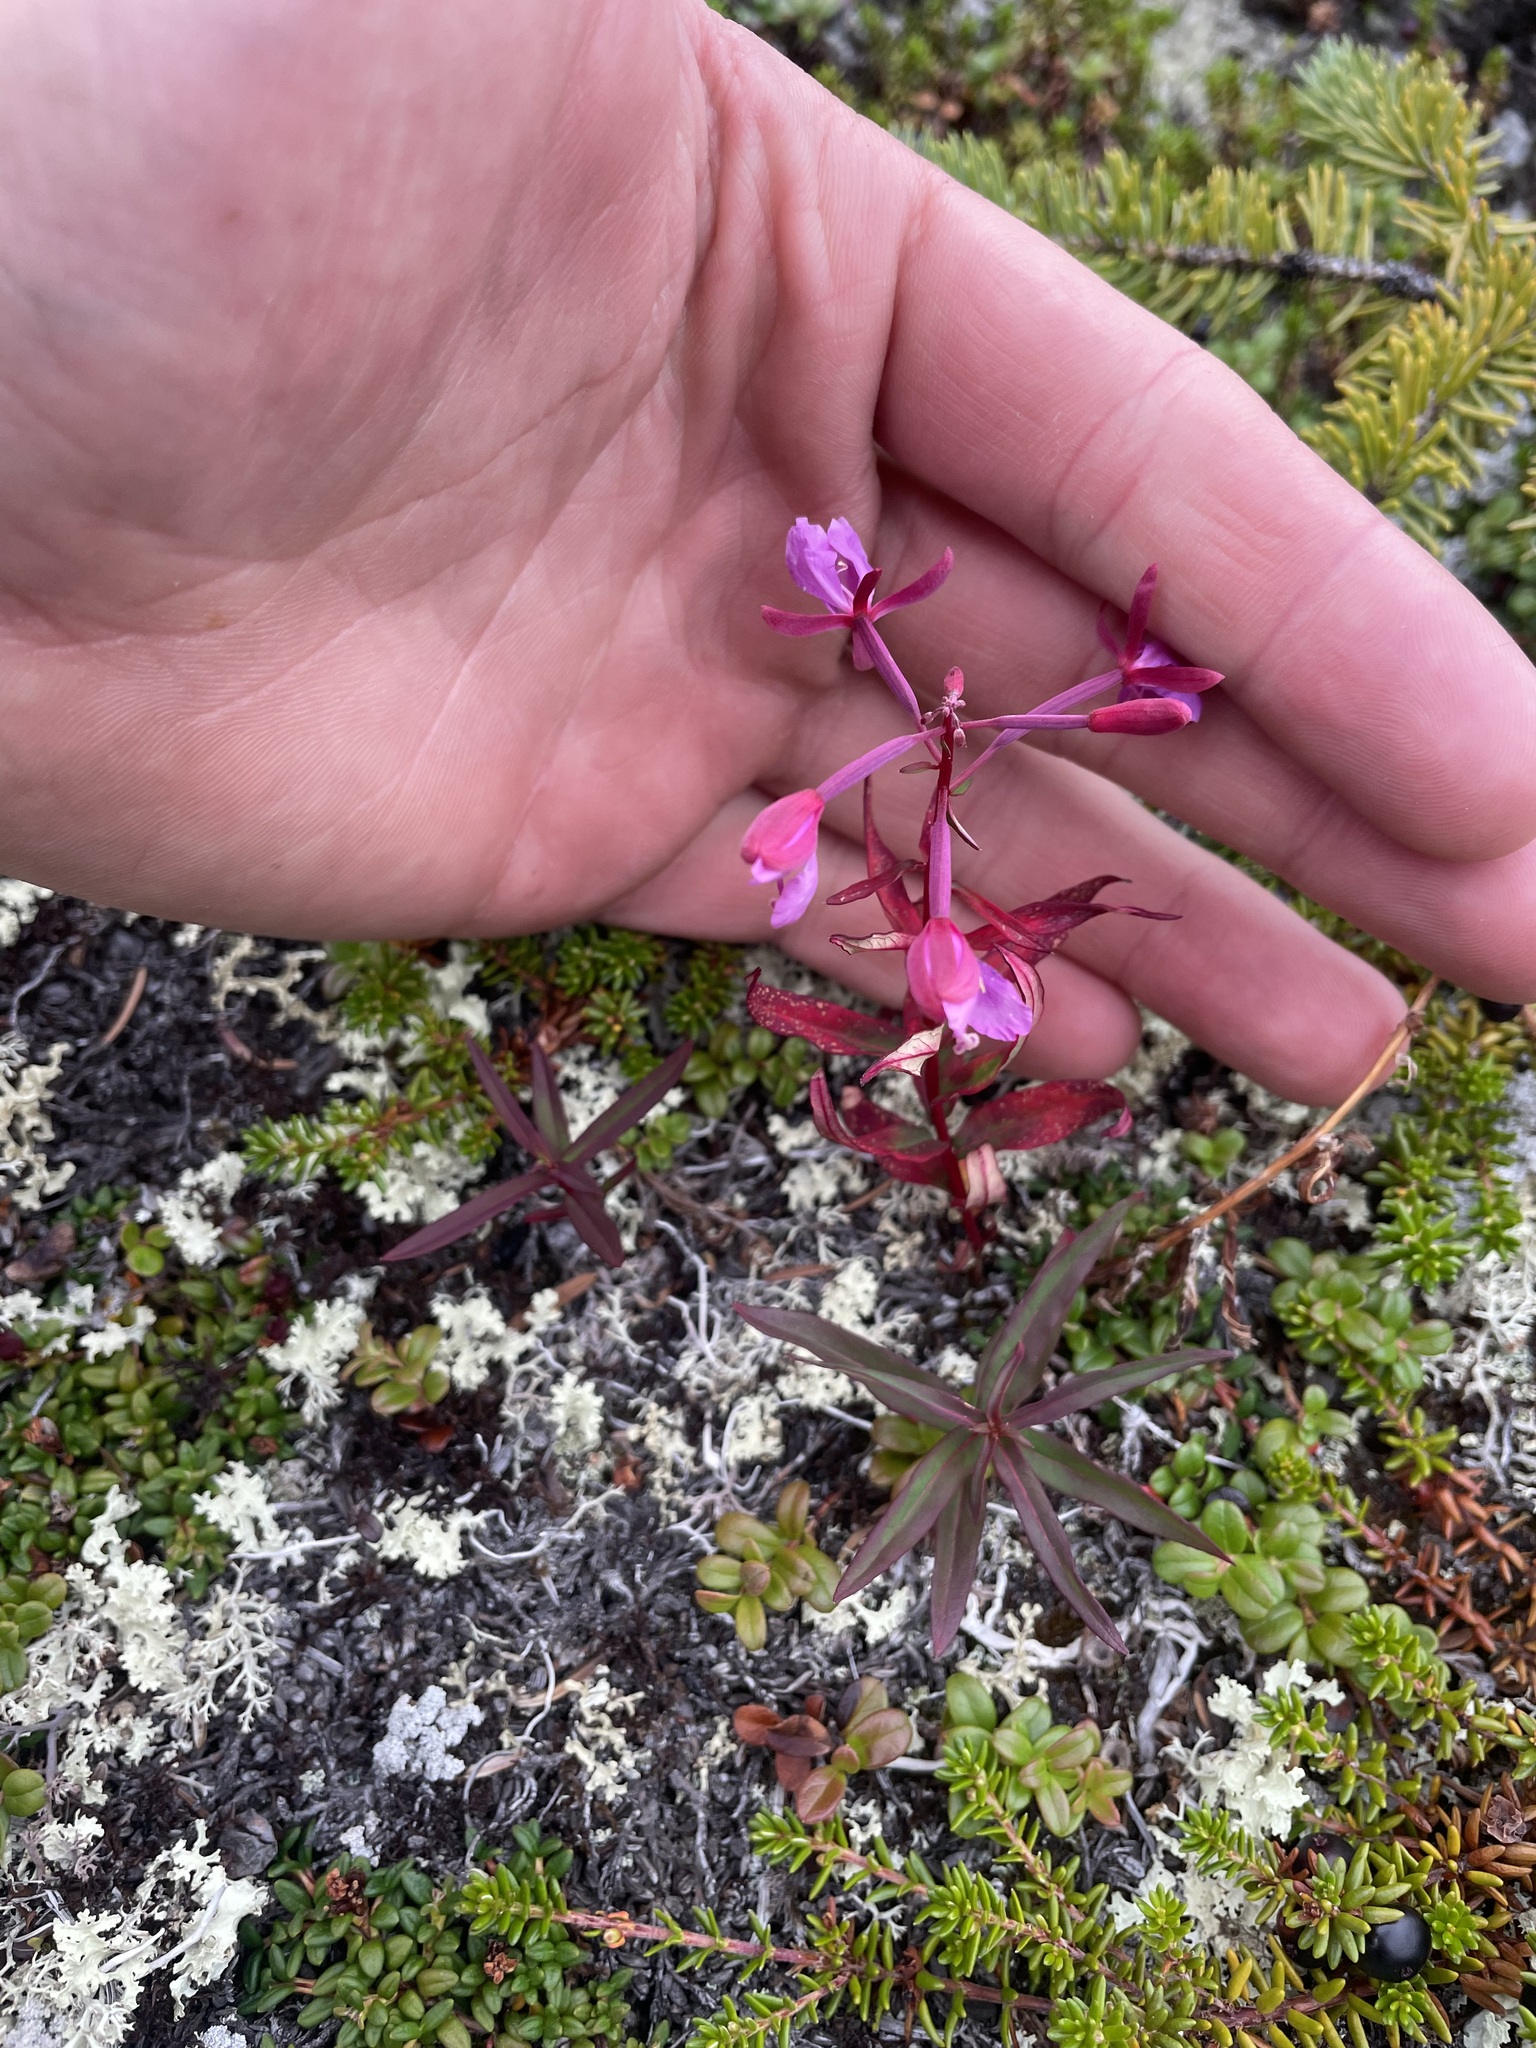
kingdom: Plantae
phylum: Tracheophyta
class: Magnoliopsida
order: Myrtales
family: Onagraceae
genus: Chamaenerion
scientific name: Chamaenerion angustifolium
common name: Fireweed
